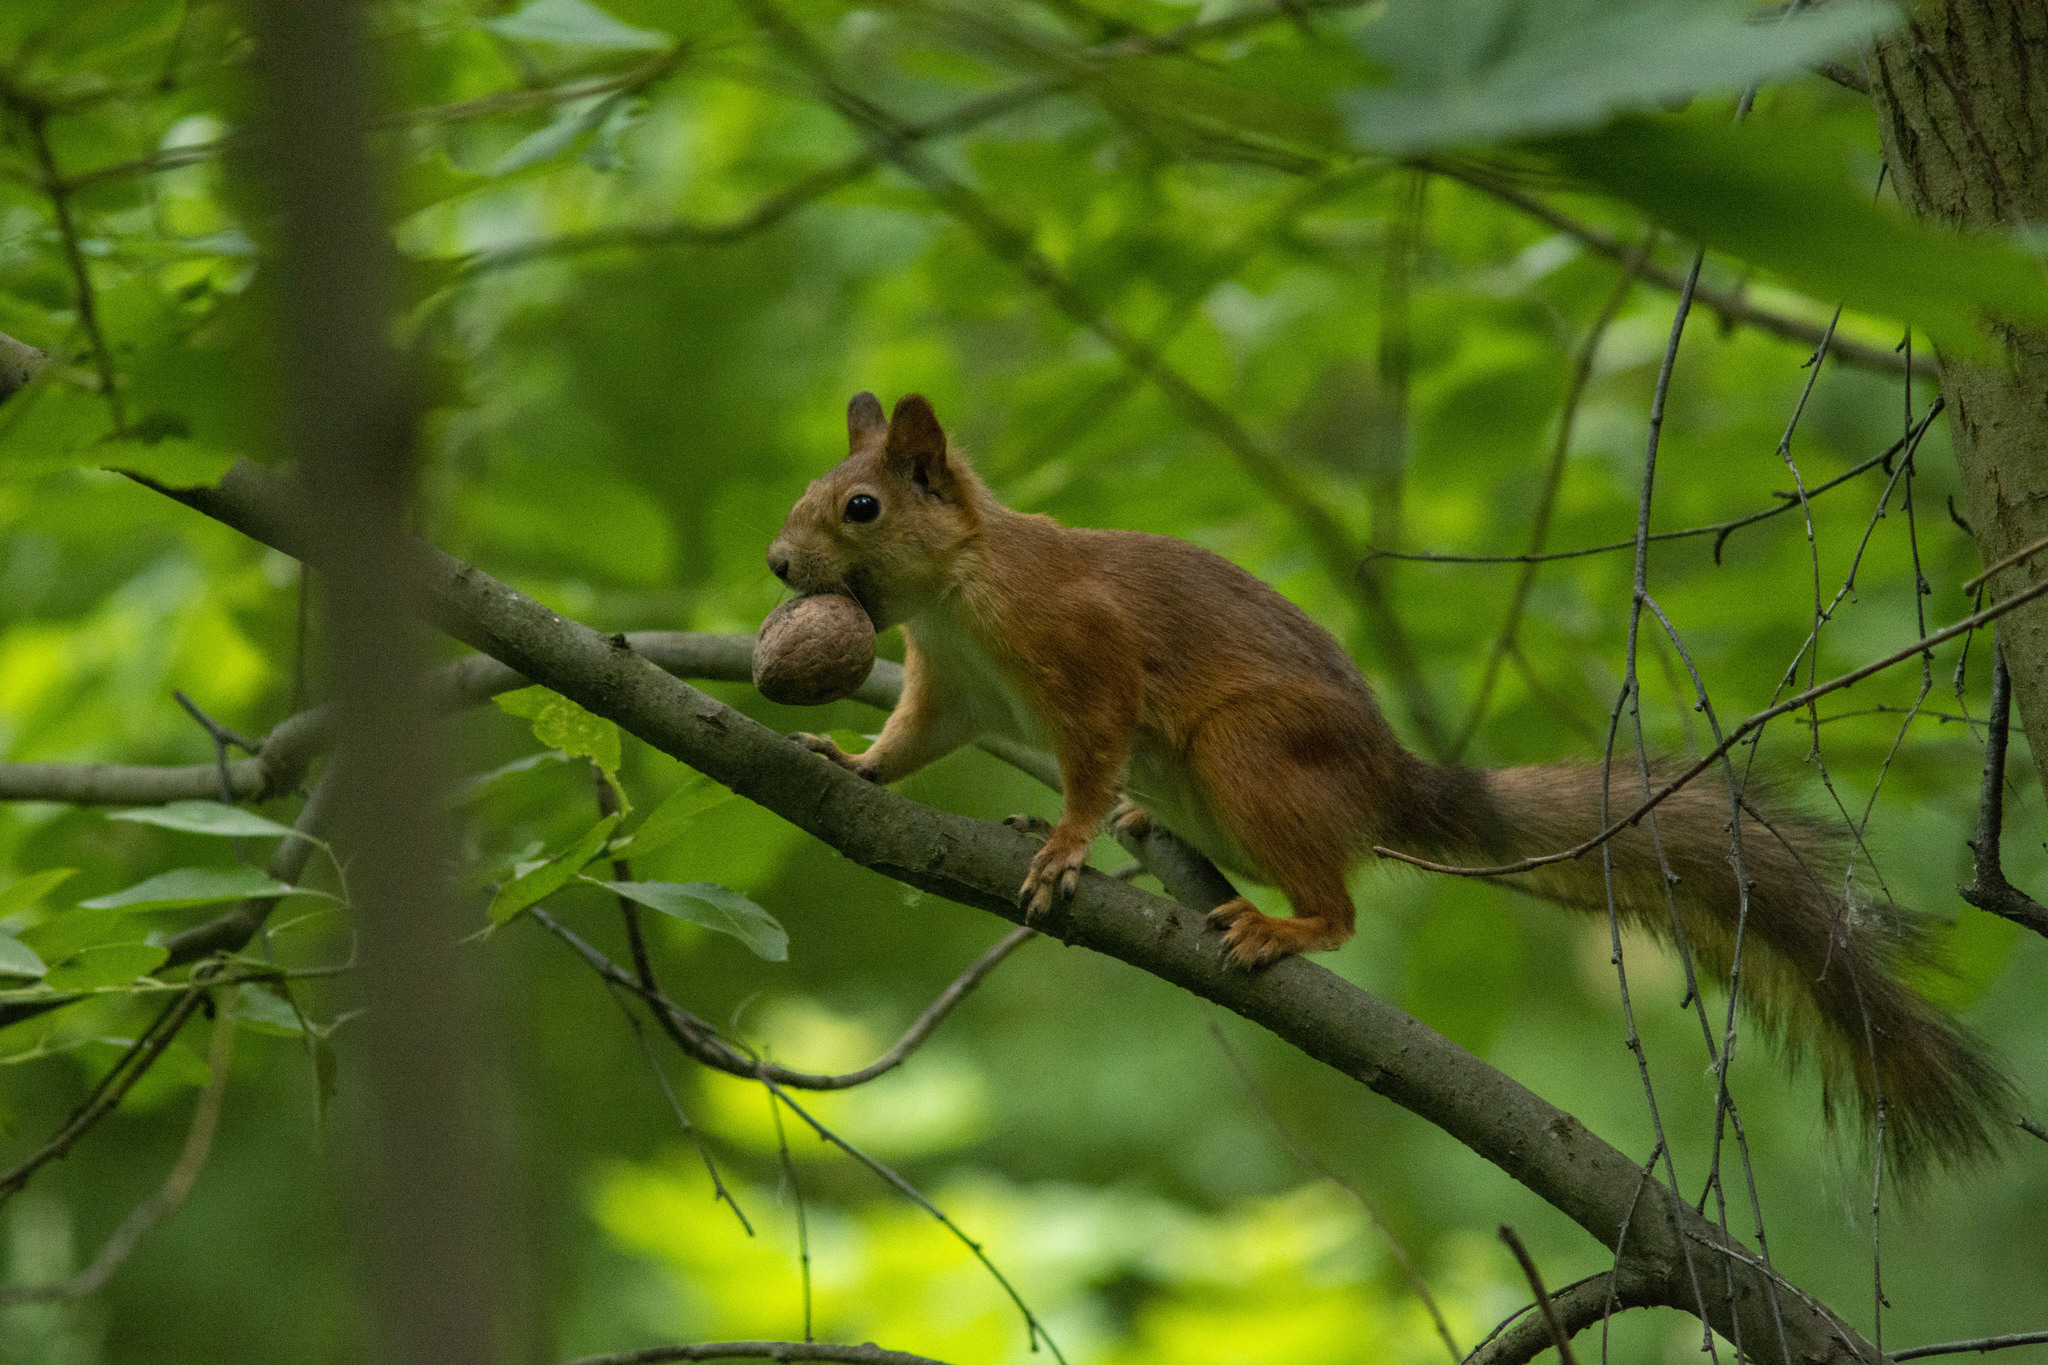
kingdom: Animalia
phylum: Chordata
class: Mammalia
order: Rodentia
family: Sciuridae
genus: Sciurus
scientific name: Sciurus vulgaris
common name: Eurasian red squirrel
